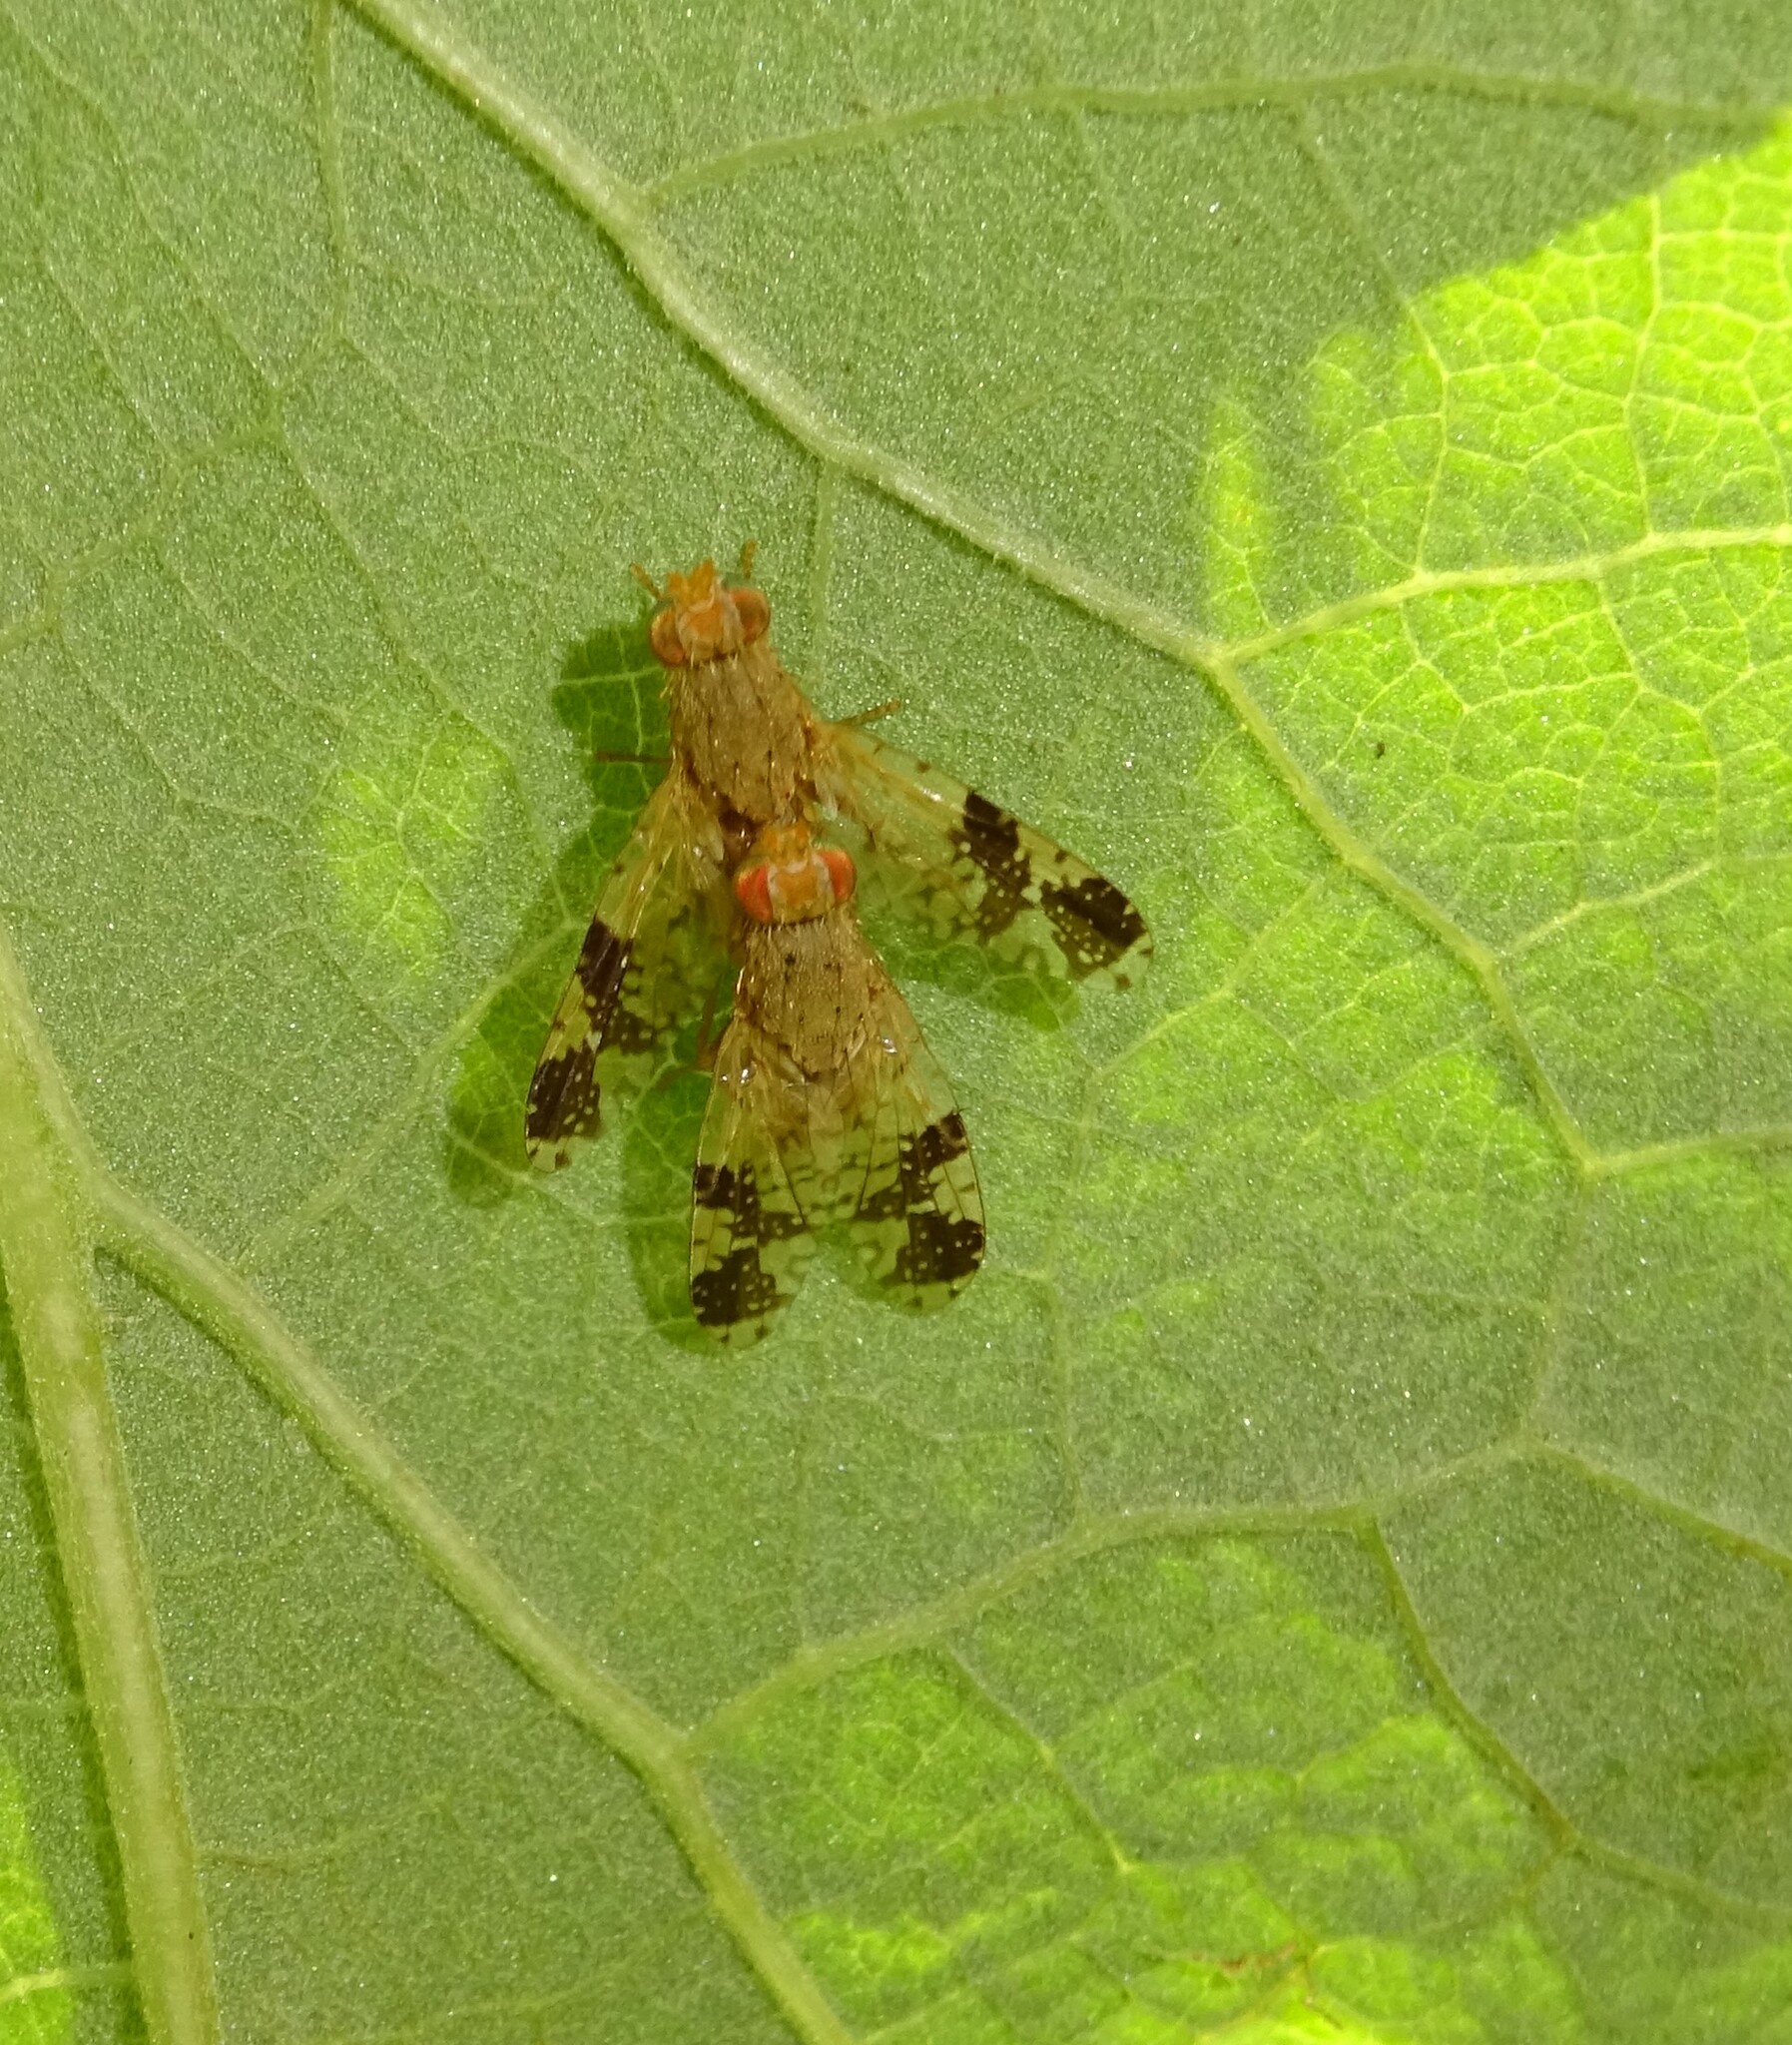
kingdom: Animalia
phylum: Arthropoda
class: Insecta
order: Diptera
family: Tephritidae
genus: Tephritis
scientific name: Tephritis bardanae
